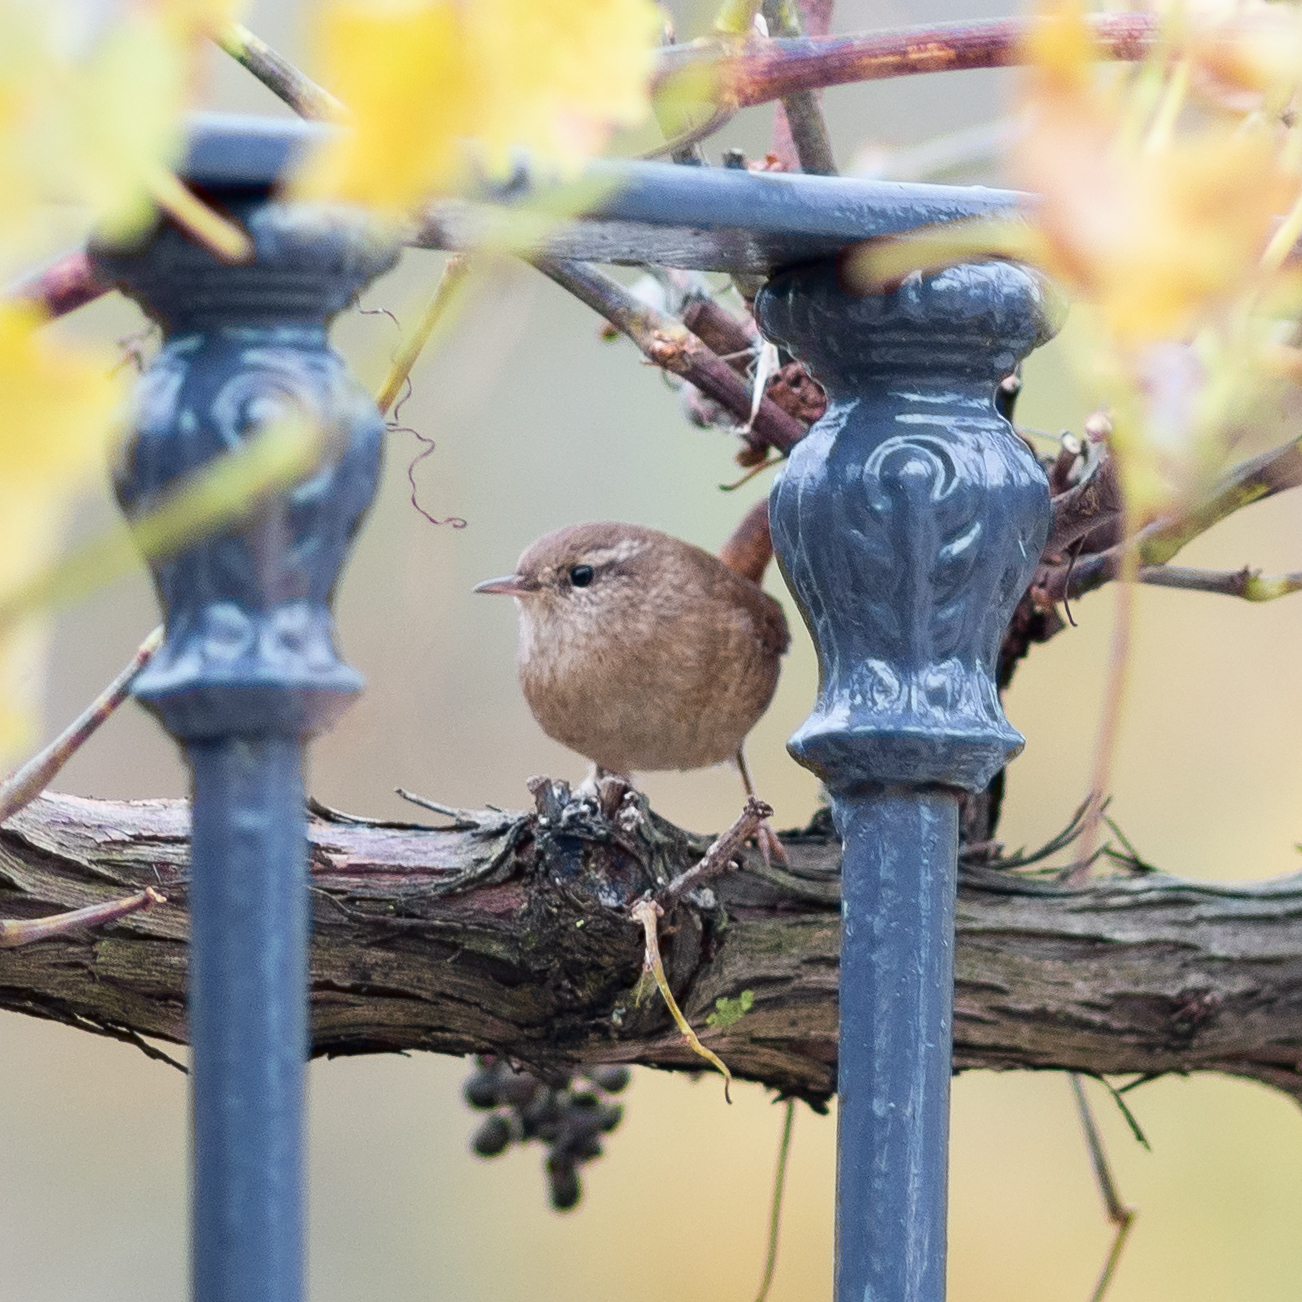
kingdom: Animalia
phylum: Chordata
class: Aves
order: Passeriformes
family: Troglodytidae
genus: Troglodytes
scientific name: Troglodytes troglodytes
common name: Eurasian wren
